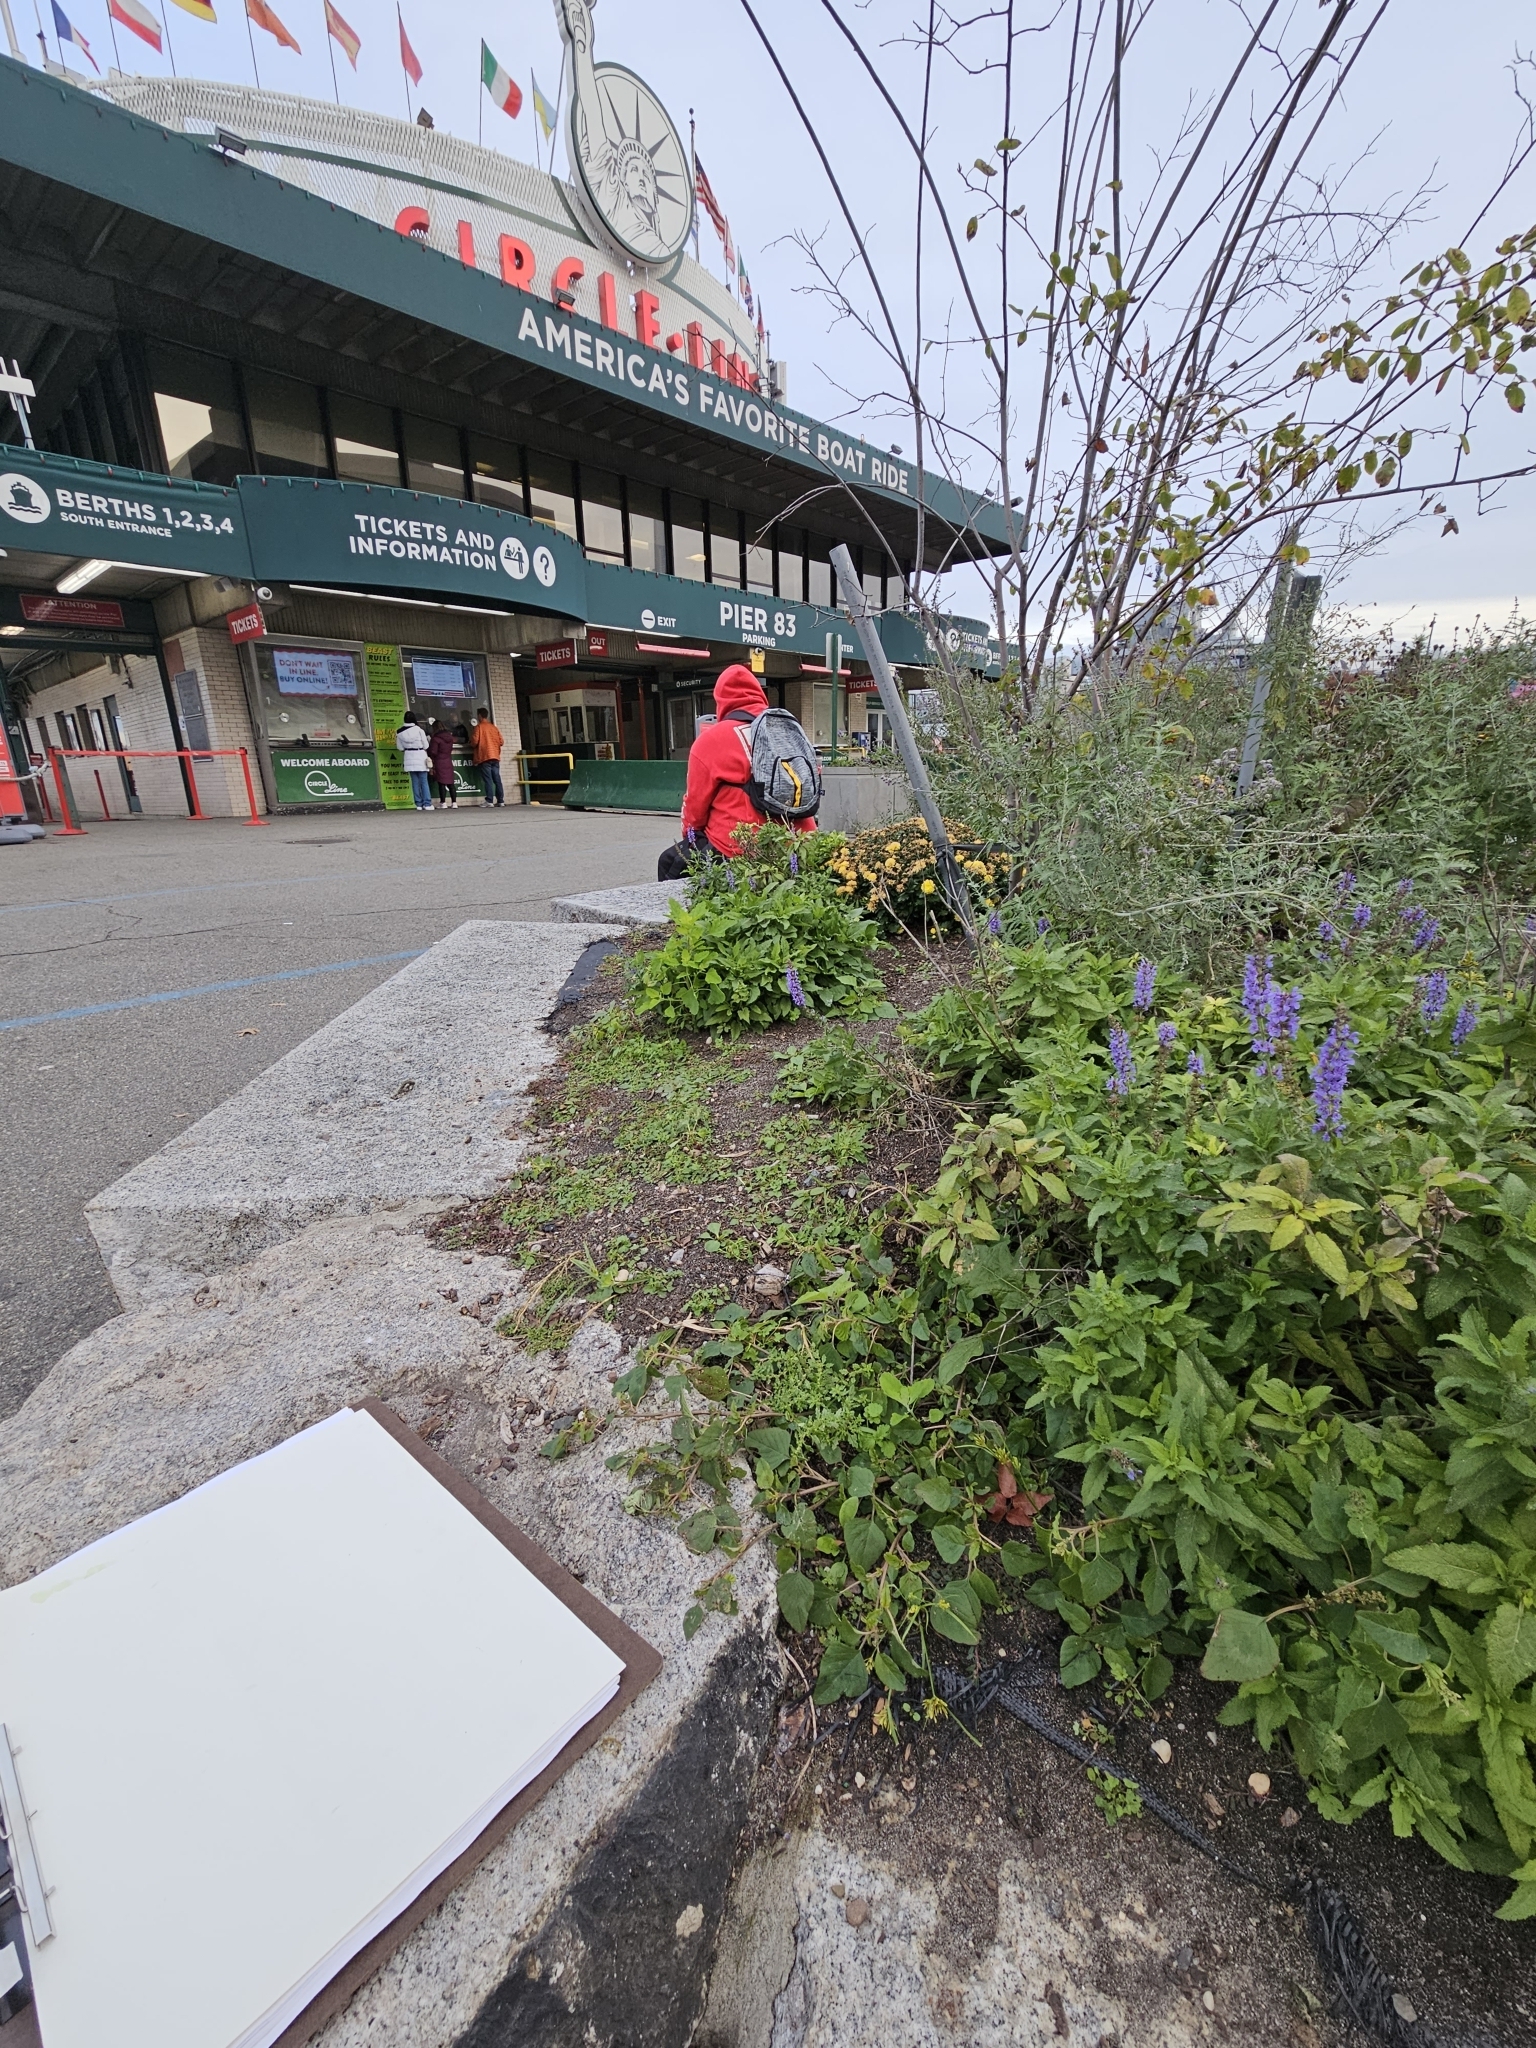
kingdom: Plantae
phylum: Tracheophyta
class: Liliopsida
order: Poales
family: Cyperaceae
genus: Cyperus
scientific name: Cyperus iria
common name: Ricefield flatsedge
